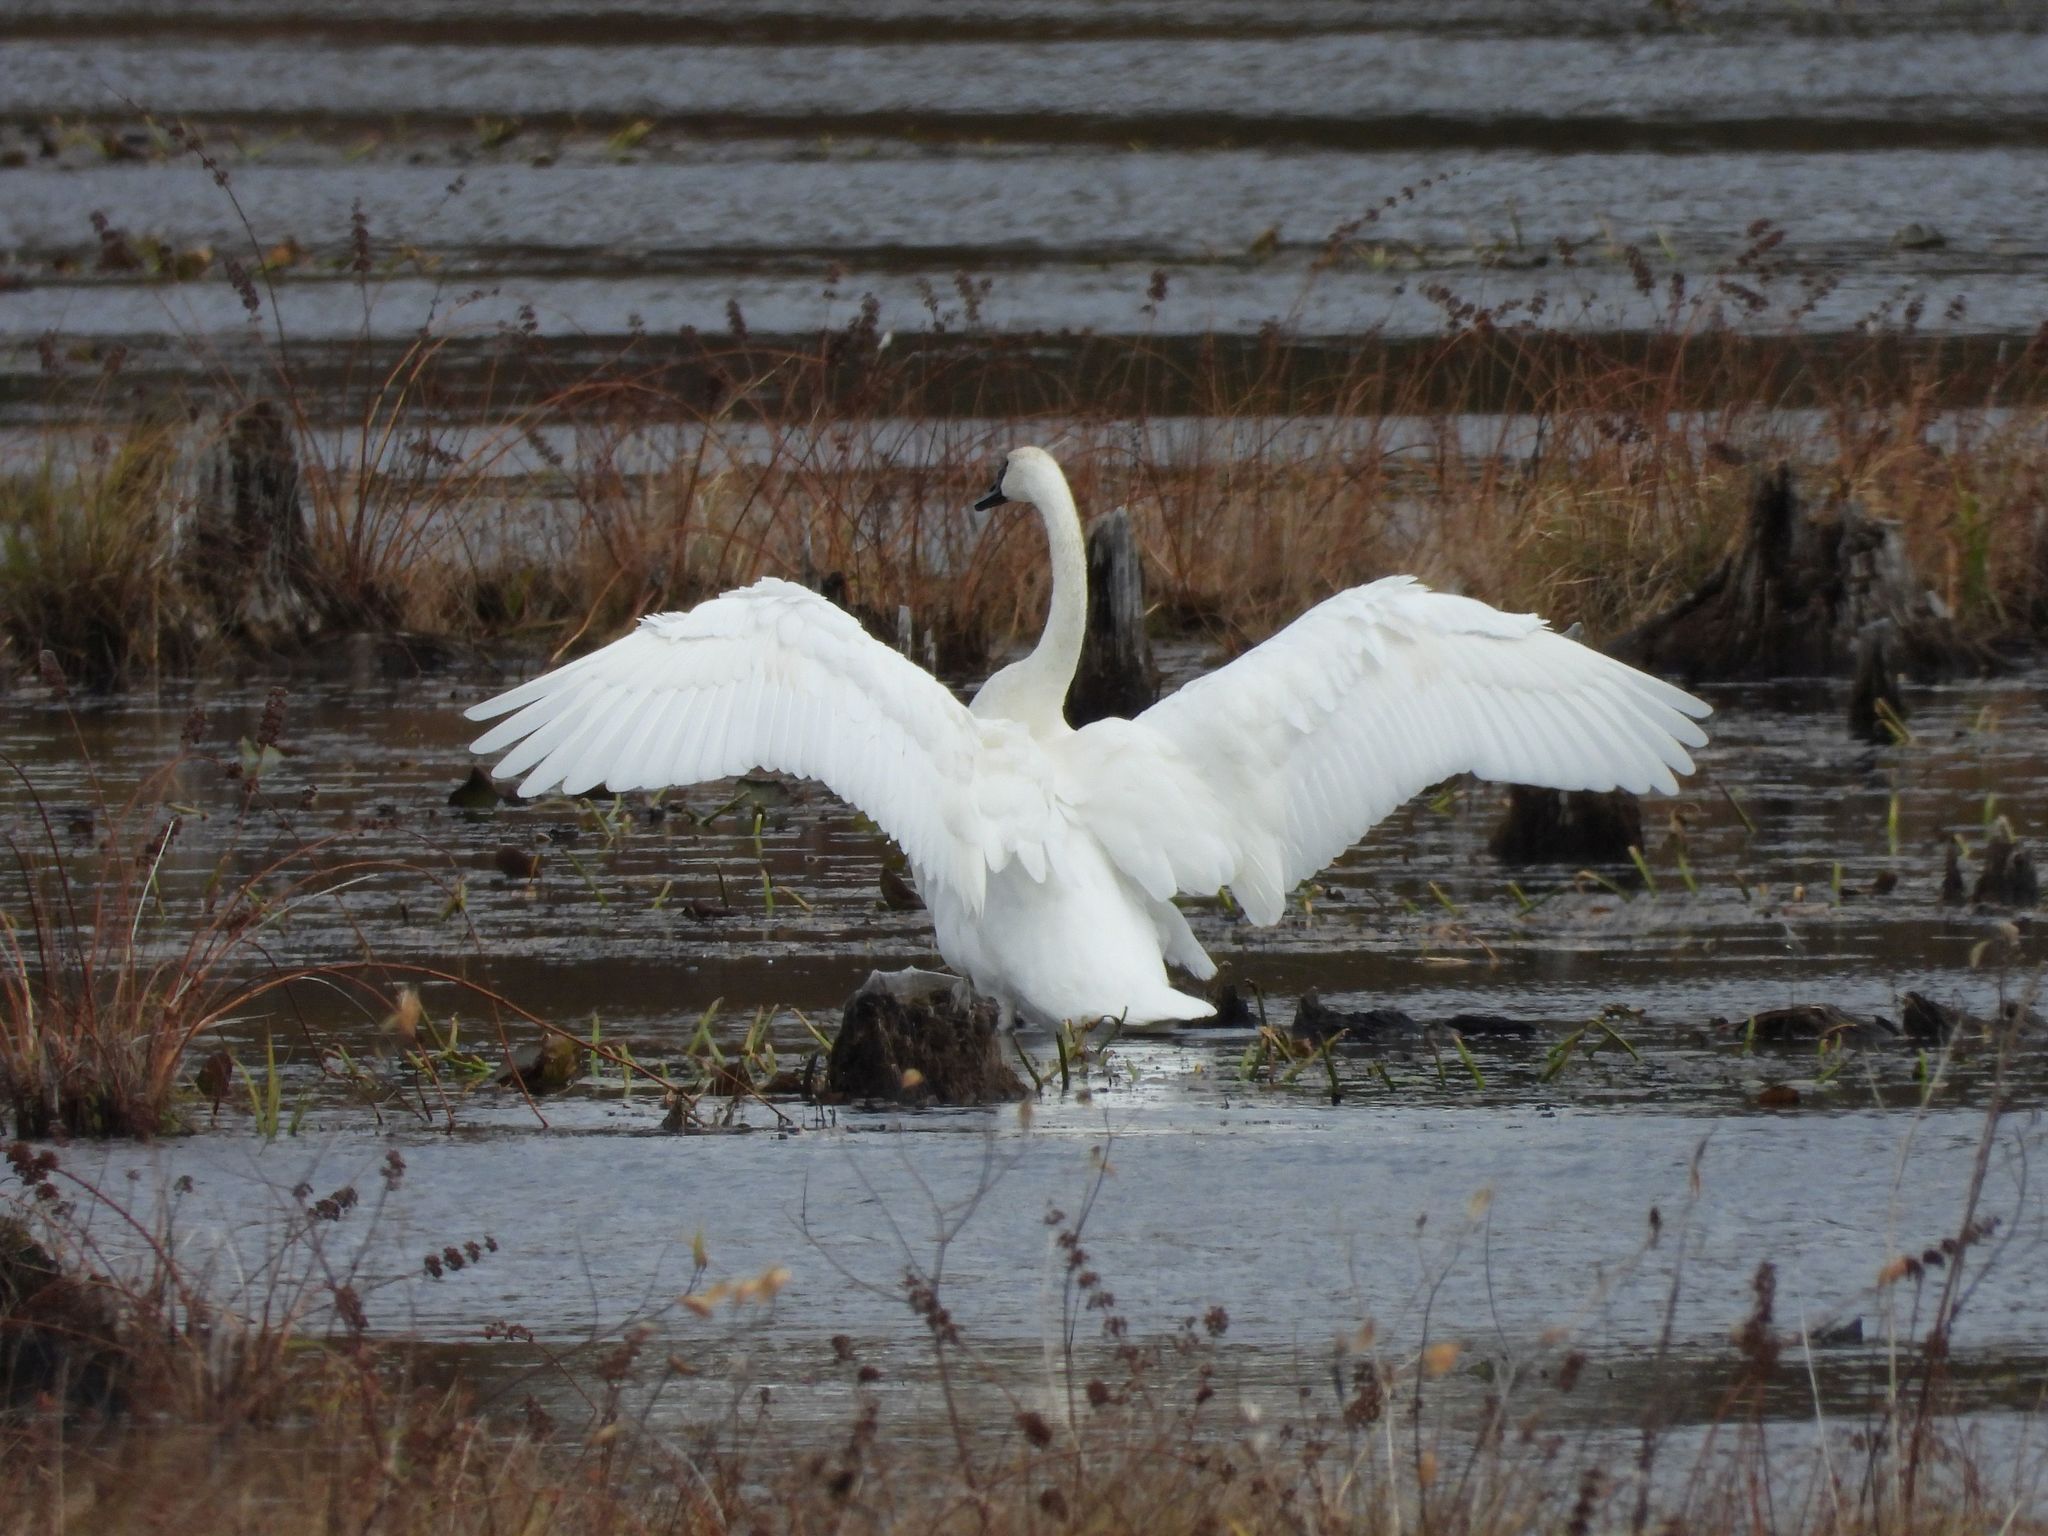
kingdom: Animalia
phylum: Chordata
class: Aves
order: Anseriformes
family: Anatidae
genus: Cygnus
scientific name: Cygnus buccinator
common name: Trumpeter swan
